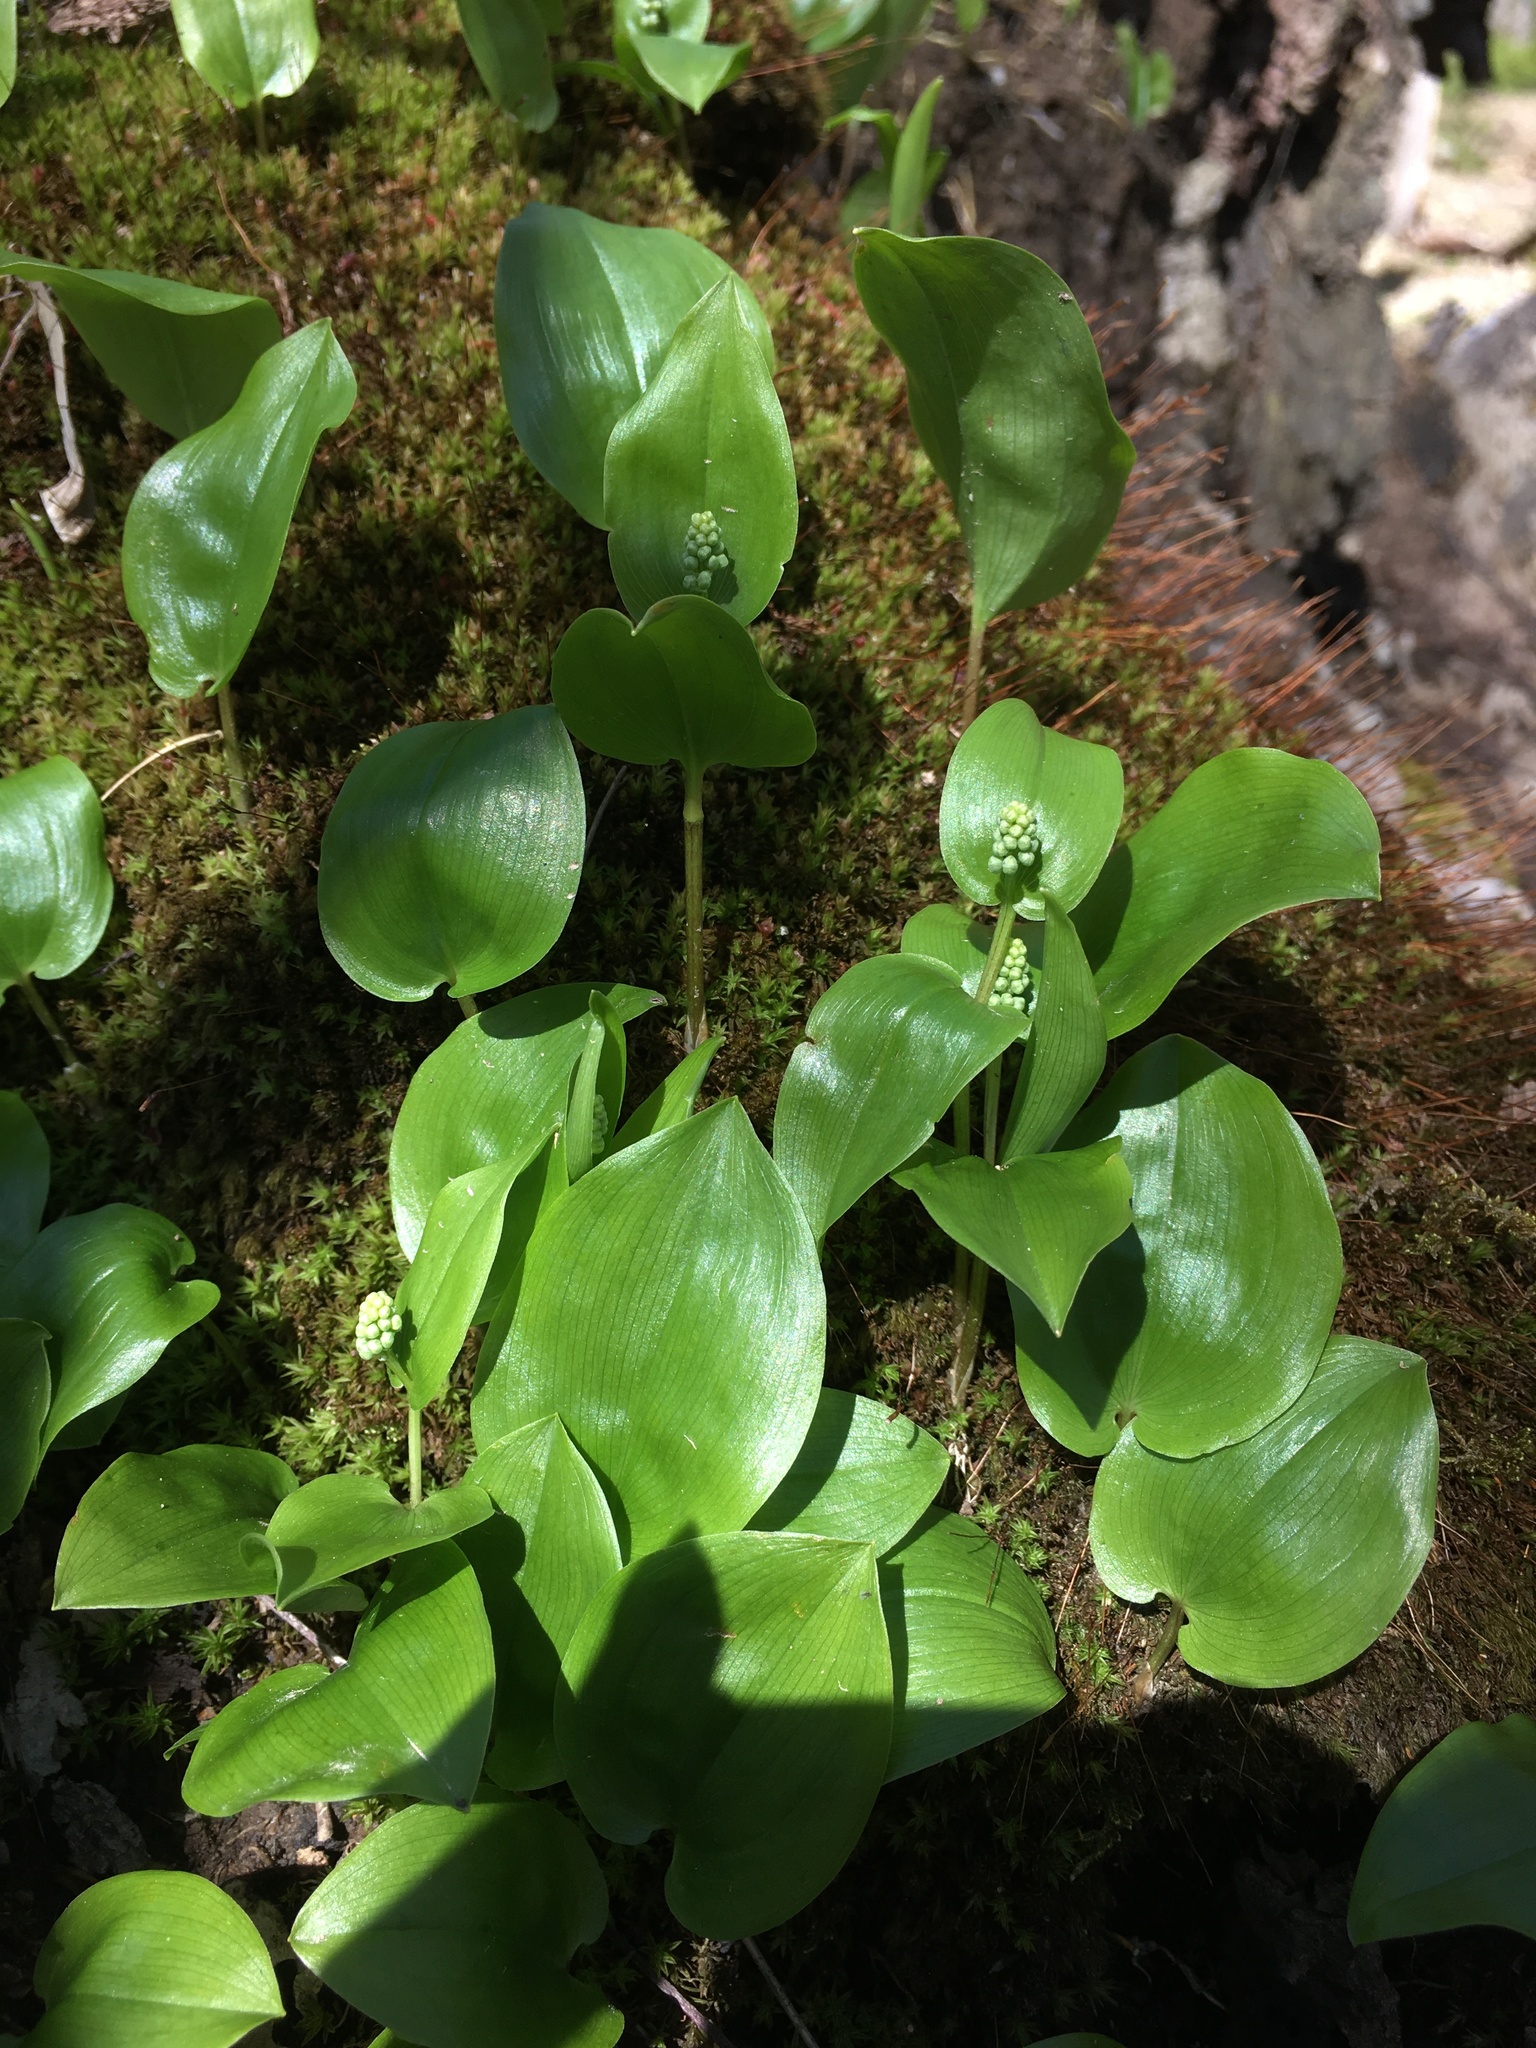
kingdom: Plantae
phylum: Tracheophyta
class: Liliopsida
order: Asparagales
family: Asparagaceae
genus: Maianthemum
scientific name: Maianthemum canadense
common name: False lily-of-the-valley
